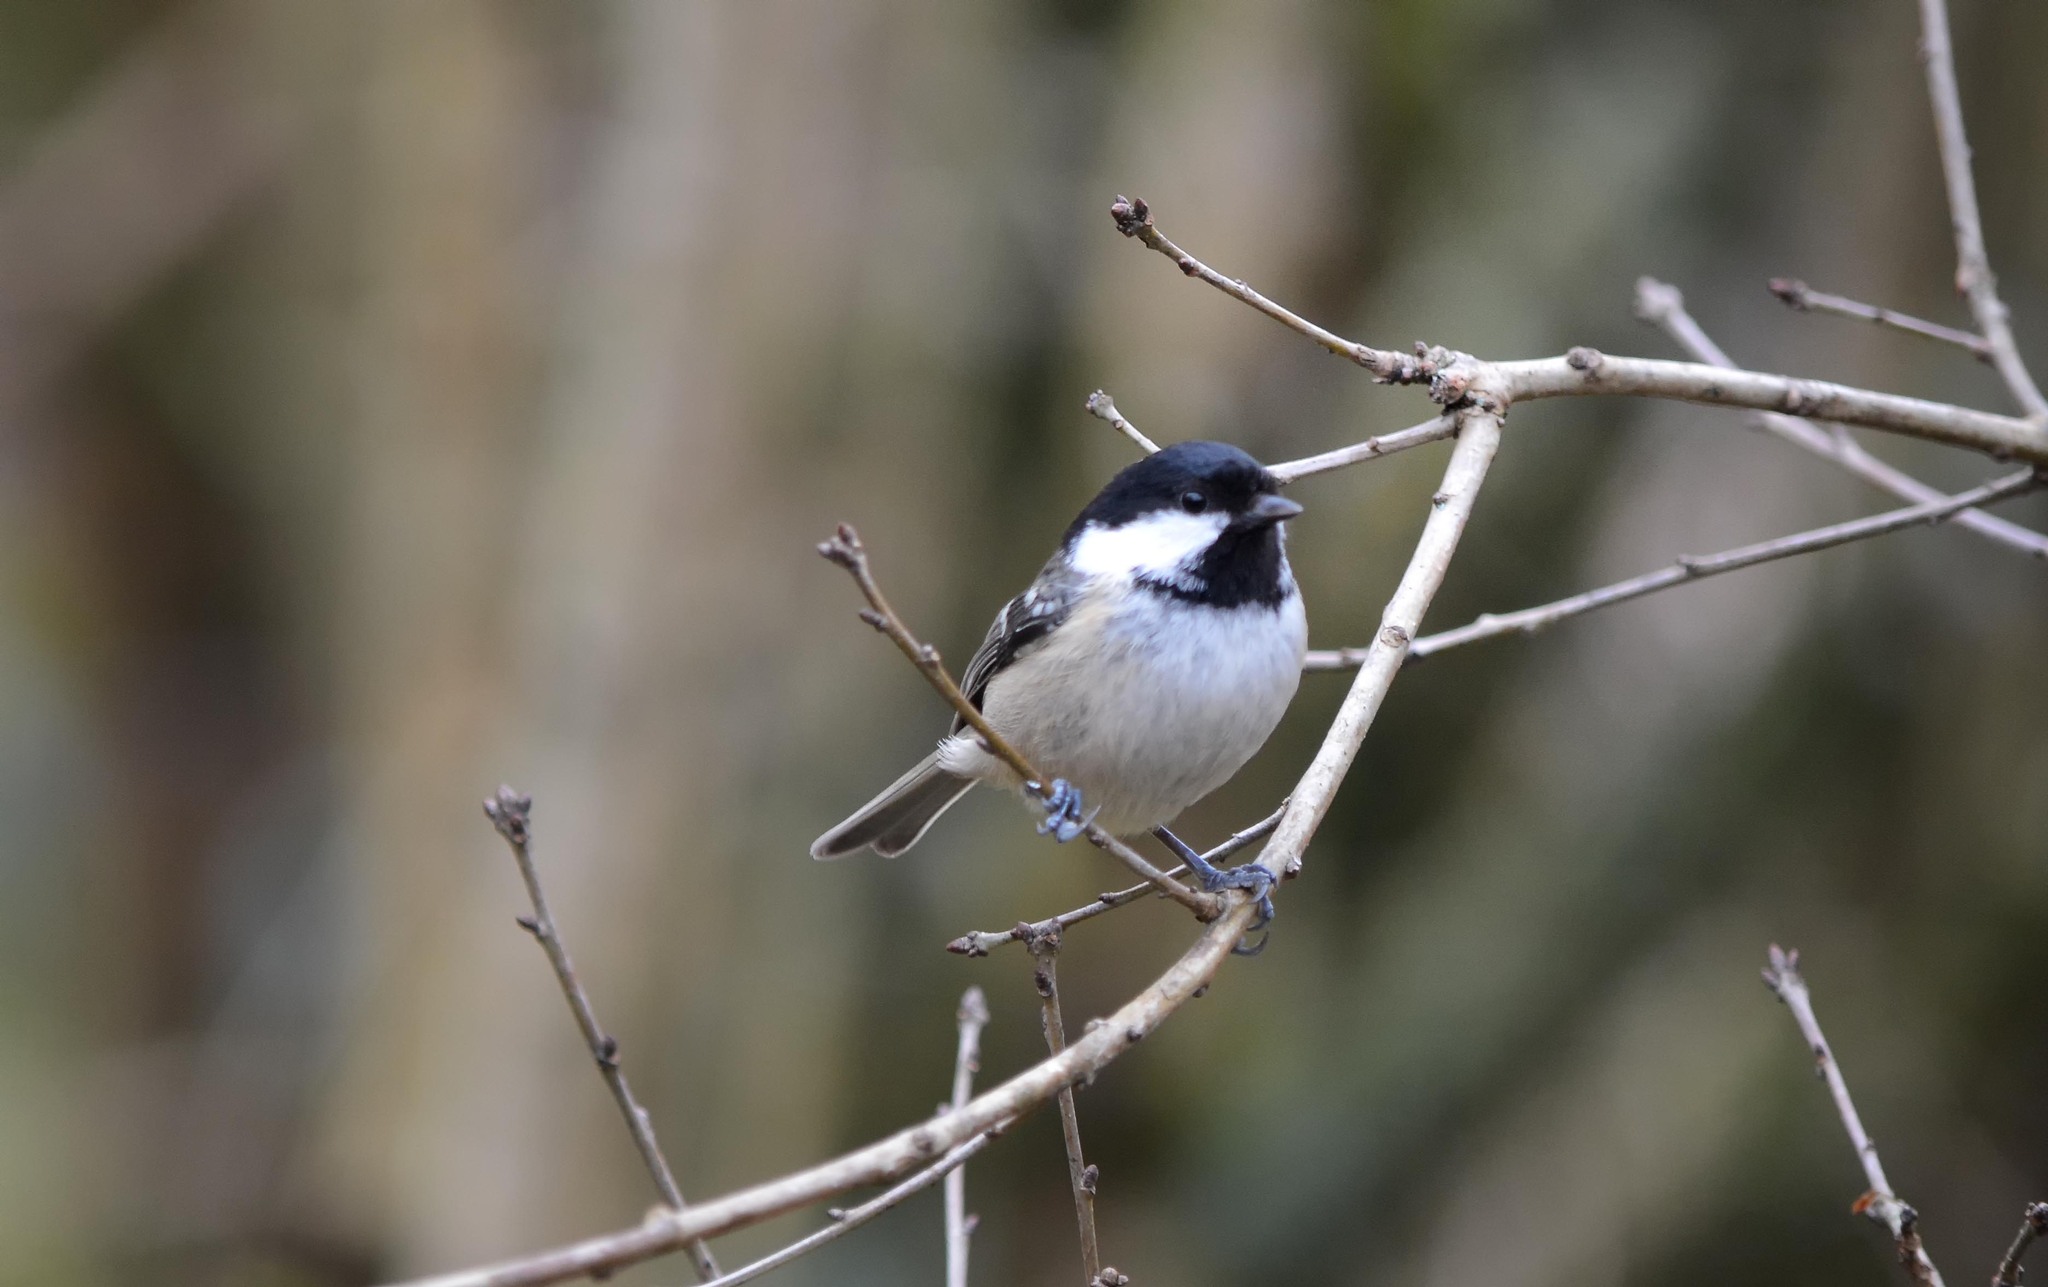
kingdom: Animalia
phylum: Chordata
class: Aves
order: Passeriformes
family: Paridae
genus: Periparus
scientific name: Periparus ater
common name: Coal tit
